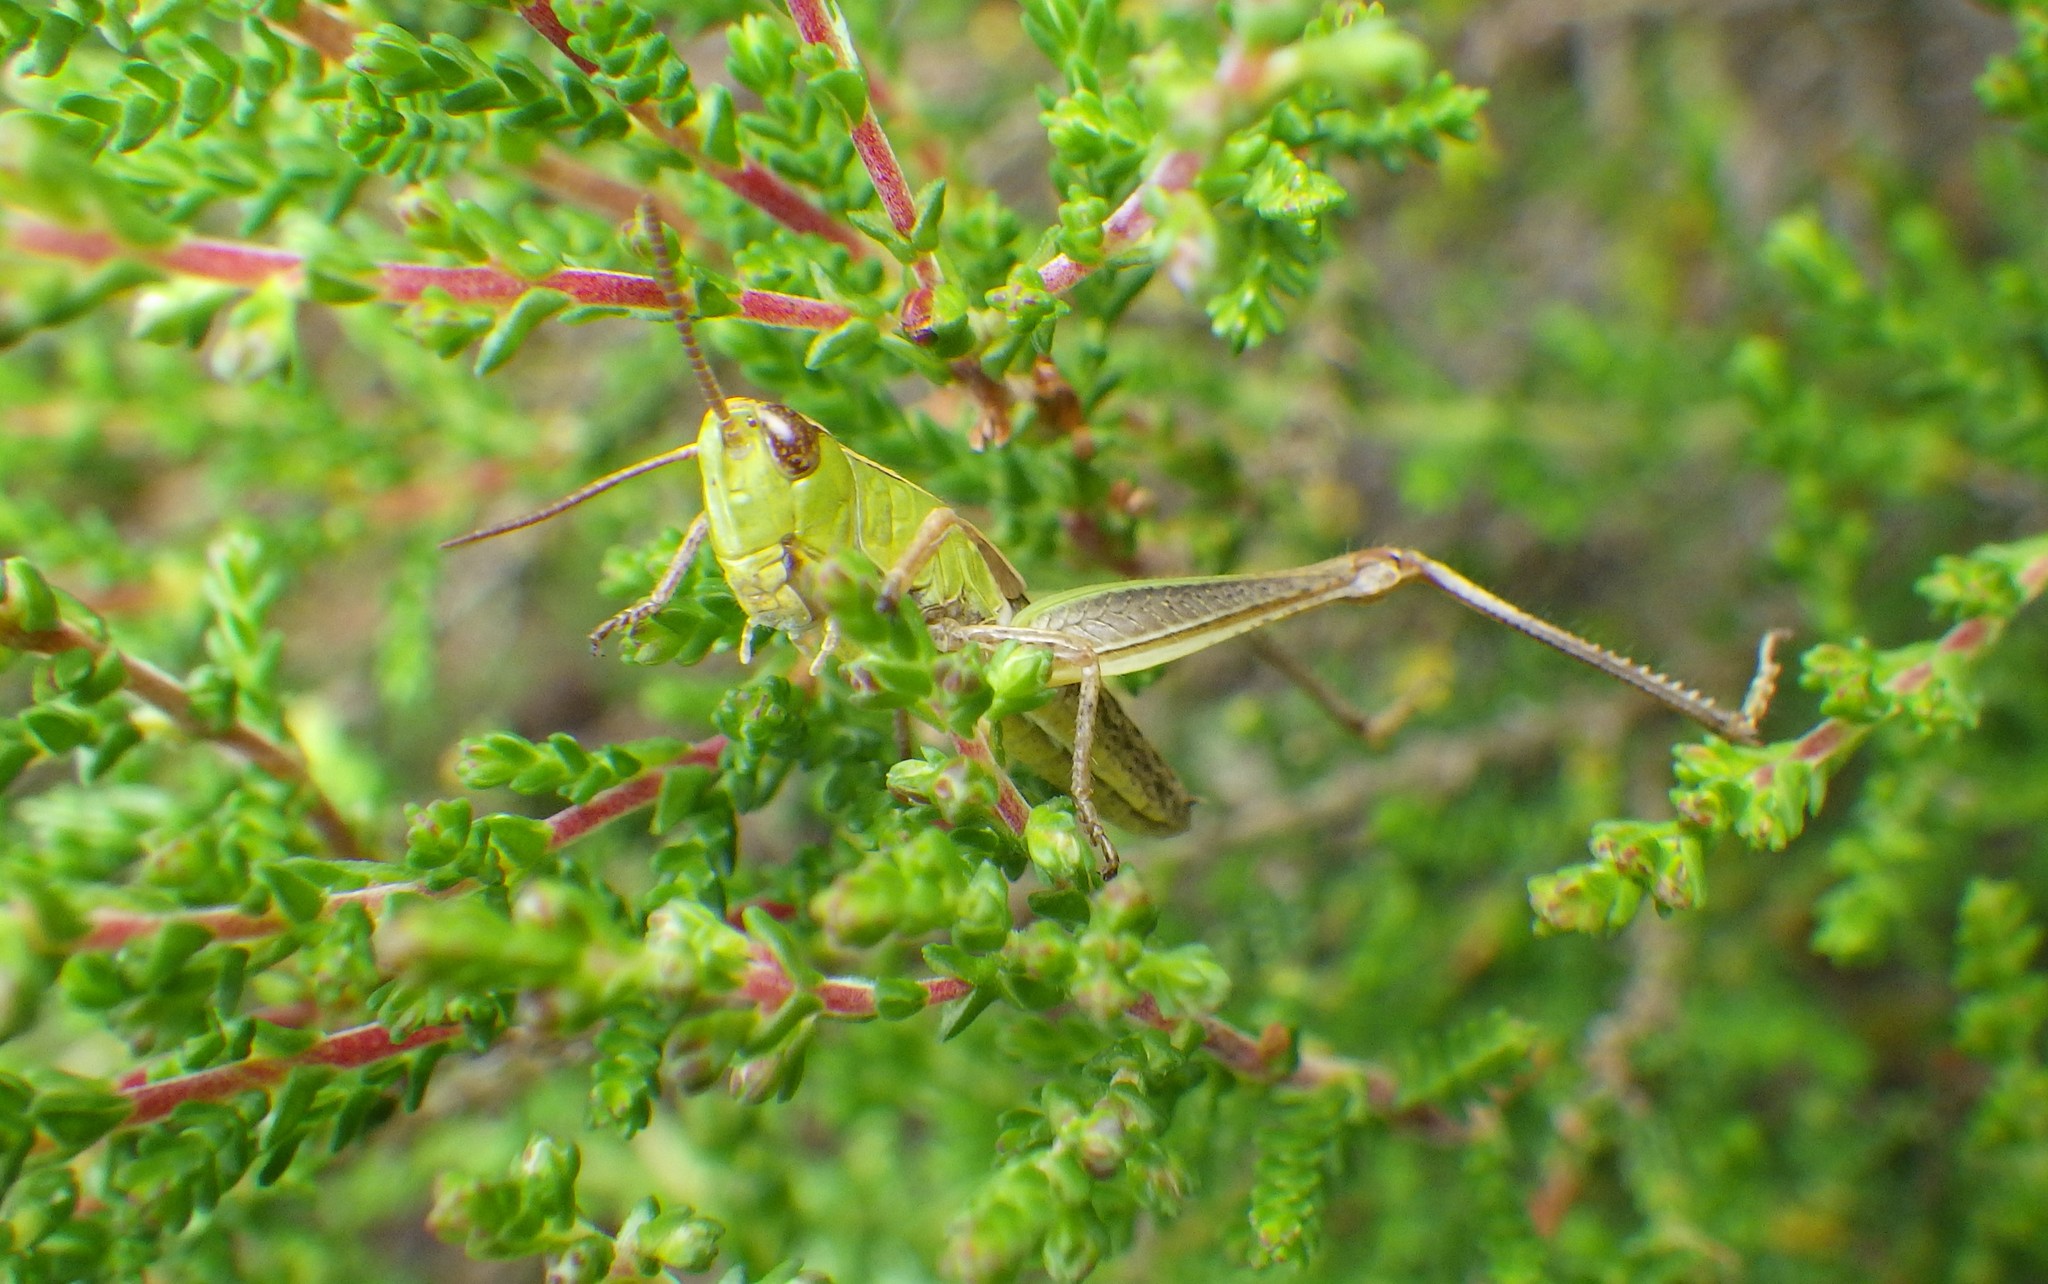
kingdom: Animalia
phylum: Arthropoda
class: Insecta
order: Orthoptera
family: Acrididae
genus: Pseudochorthippus
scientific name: Pseudochorthippus parallelus
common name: Meadow grasshopper
